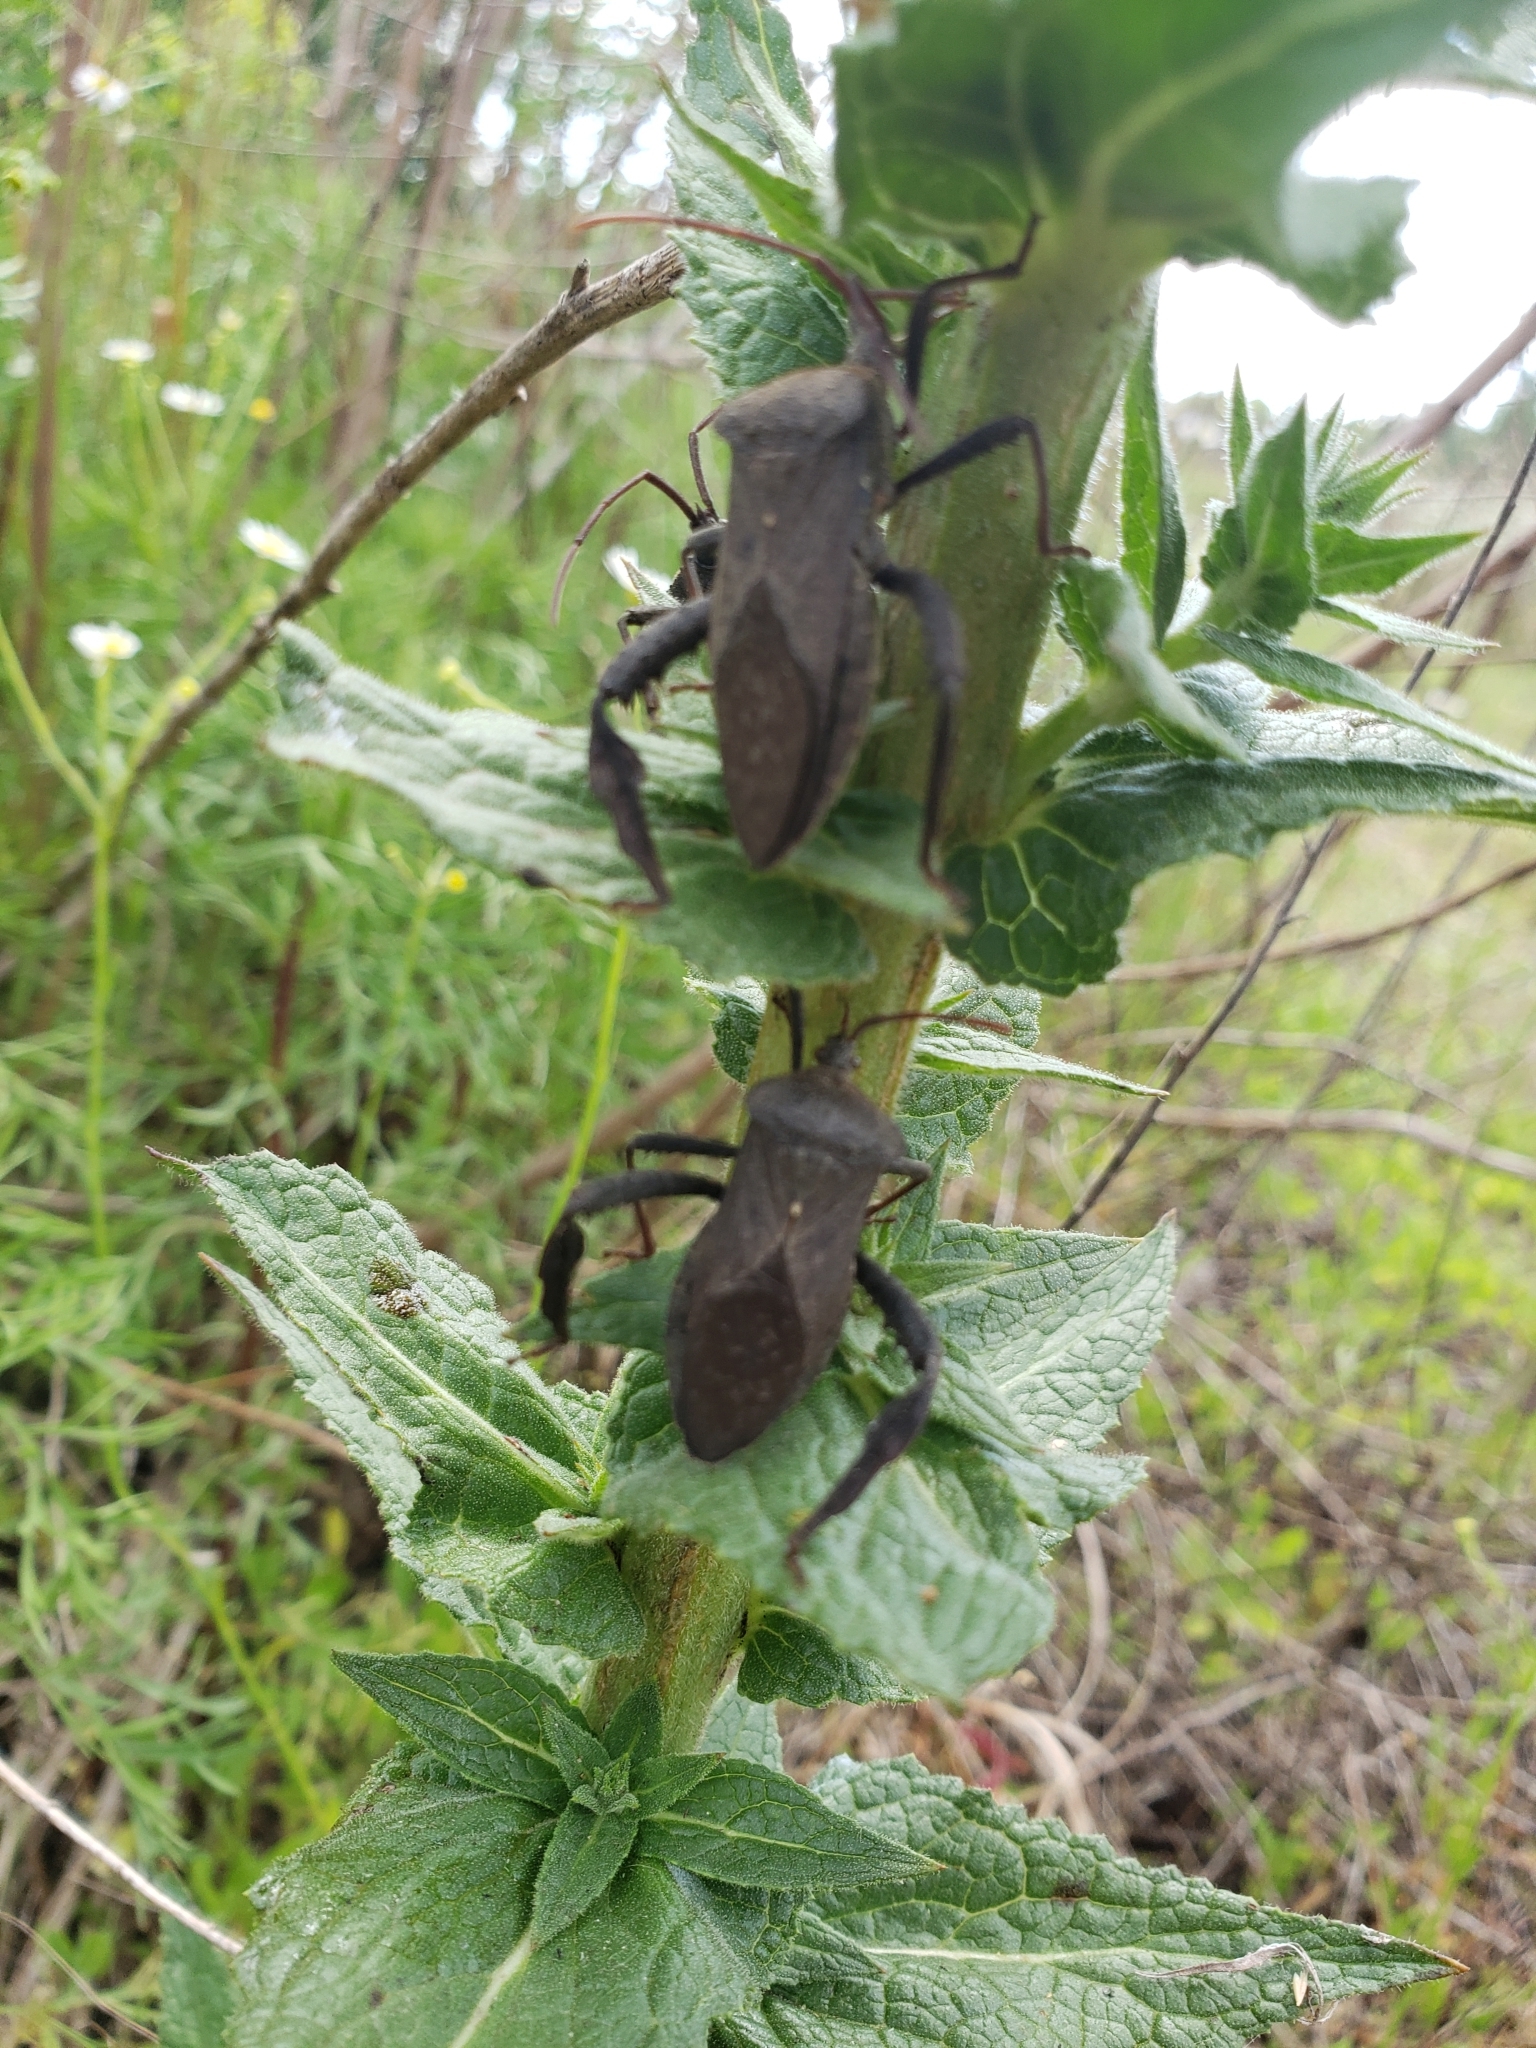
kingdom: Animalia
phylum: Arthropoda
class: Insecta
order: Hemiptera
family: Coreidae
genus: Acanthocephala
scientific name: Acanthocephala femorata
